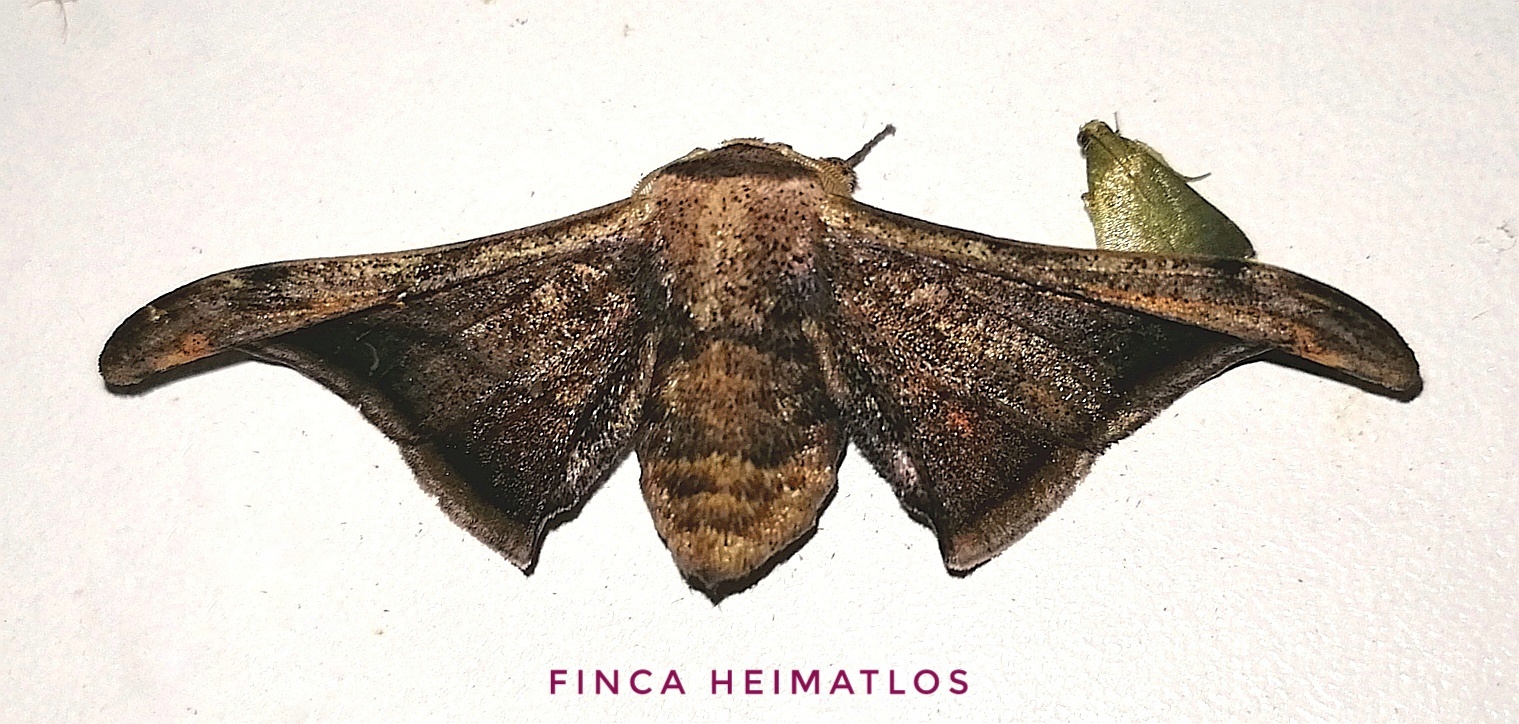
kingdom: Animalia
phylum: Arthropoda
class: Insecta
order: Lepidoptera
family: Mimallonidae
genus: Cicinnus
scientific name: Cicinnus malca
